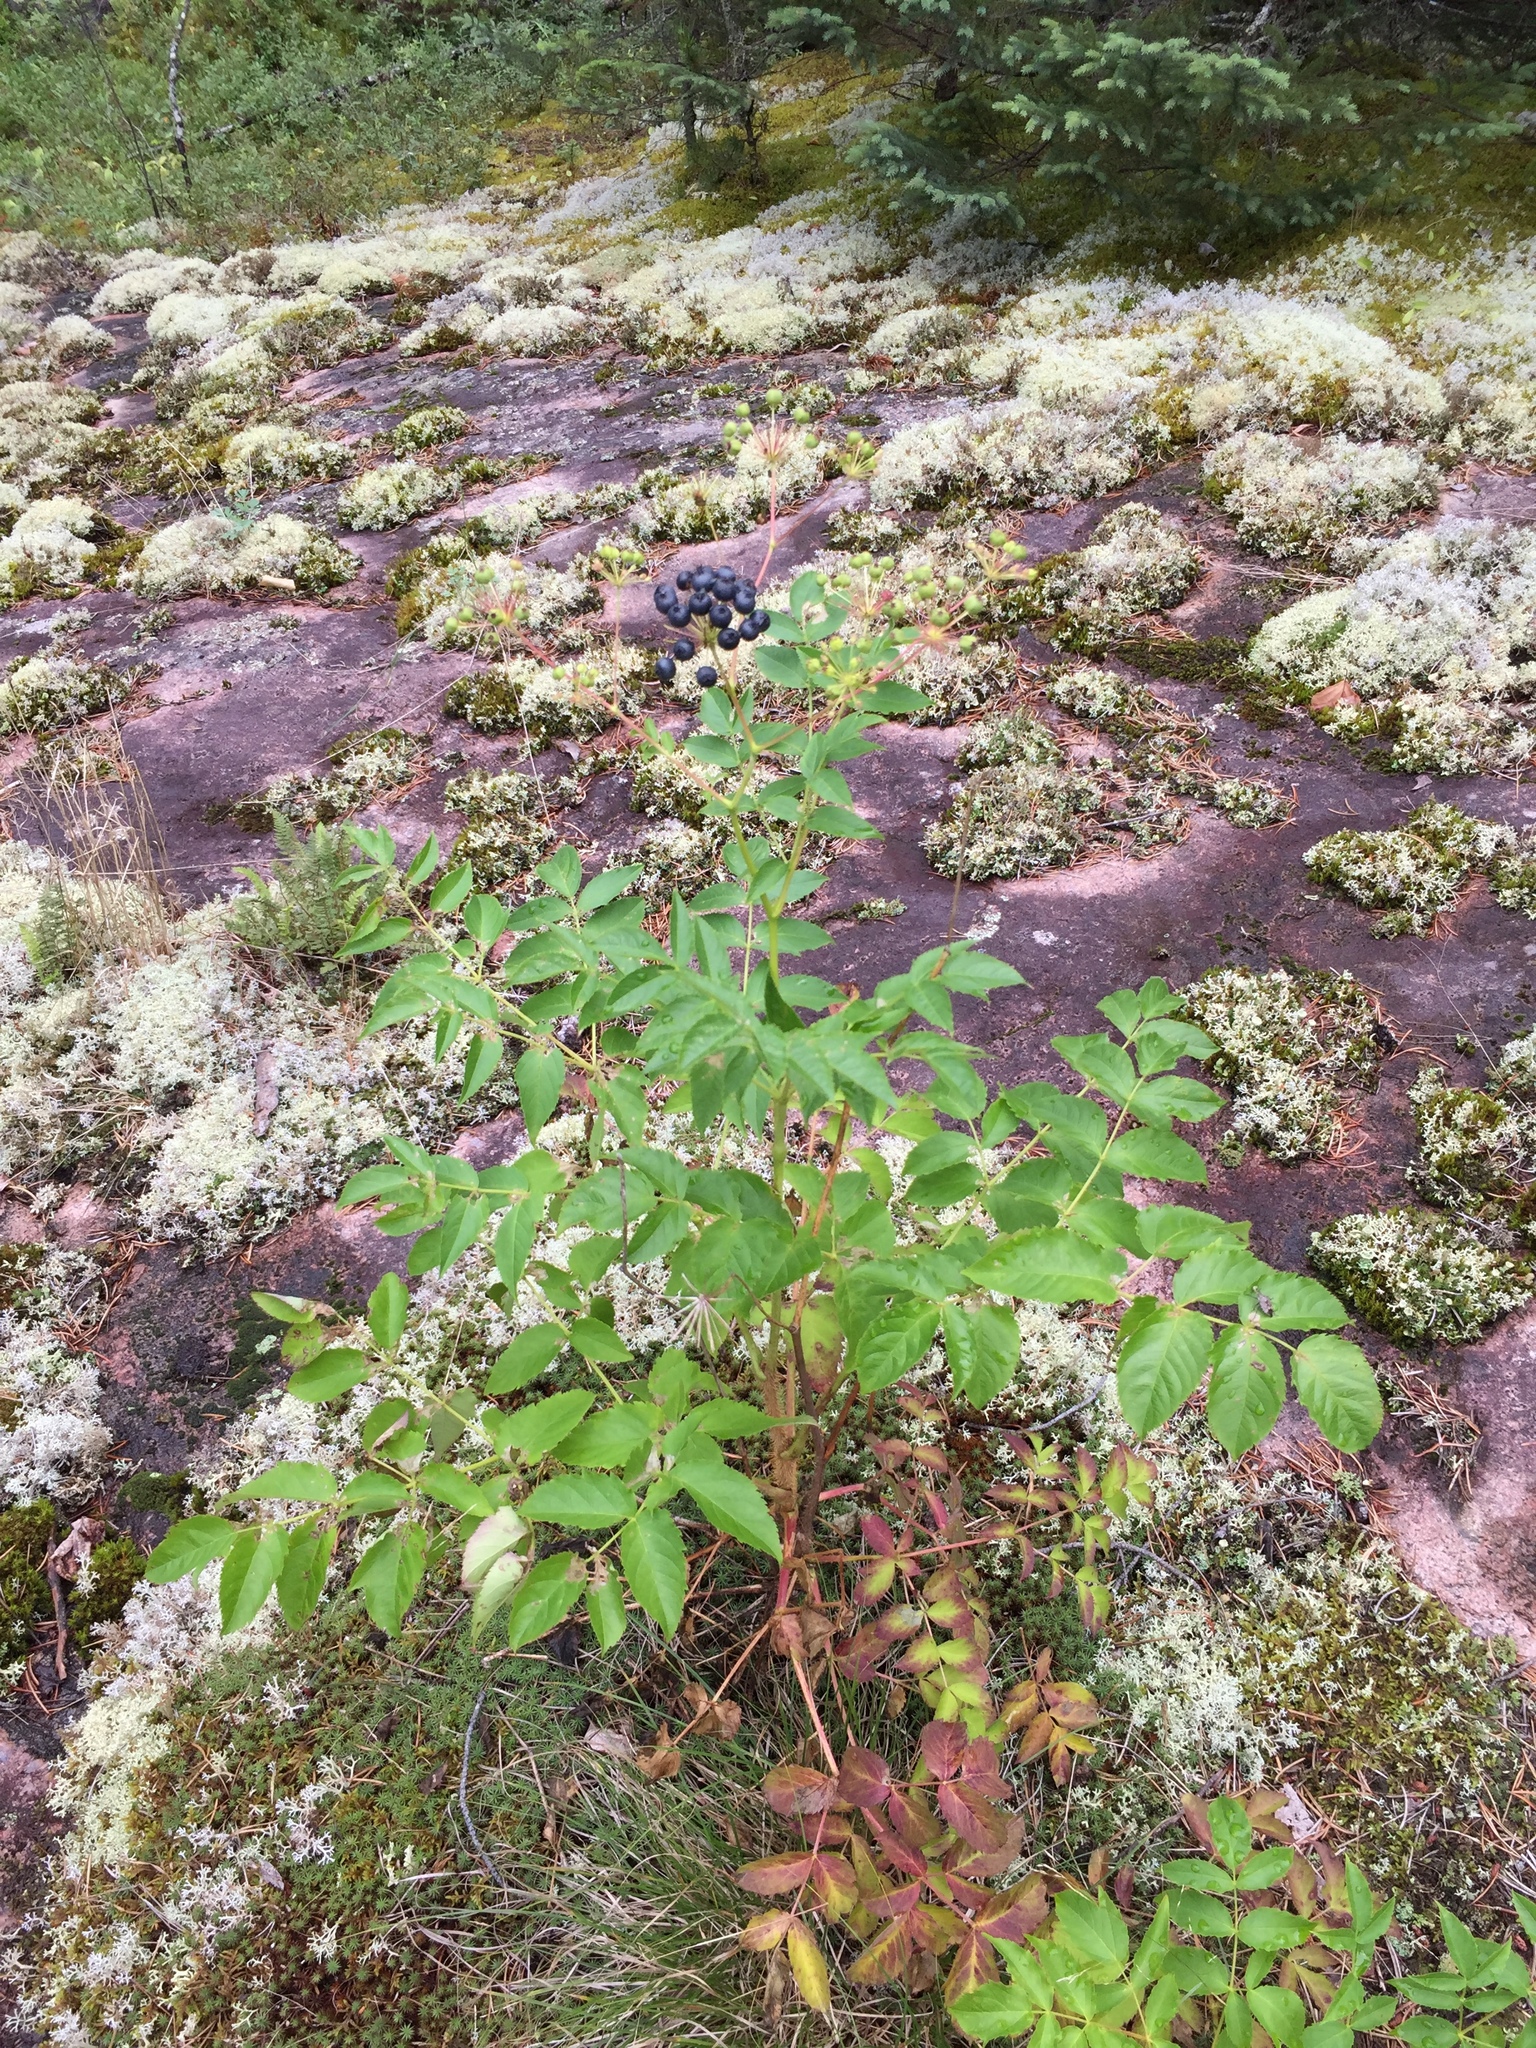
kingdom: Plantae
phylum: Tracheophyta
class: Magnoliopsida
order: Apiales
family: Araliaceae
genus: Aralia
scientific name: Aralia hispida
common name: Bristly sarsaparilla
